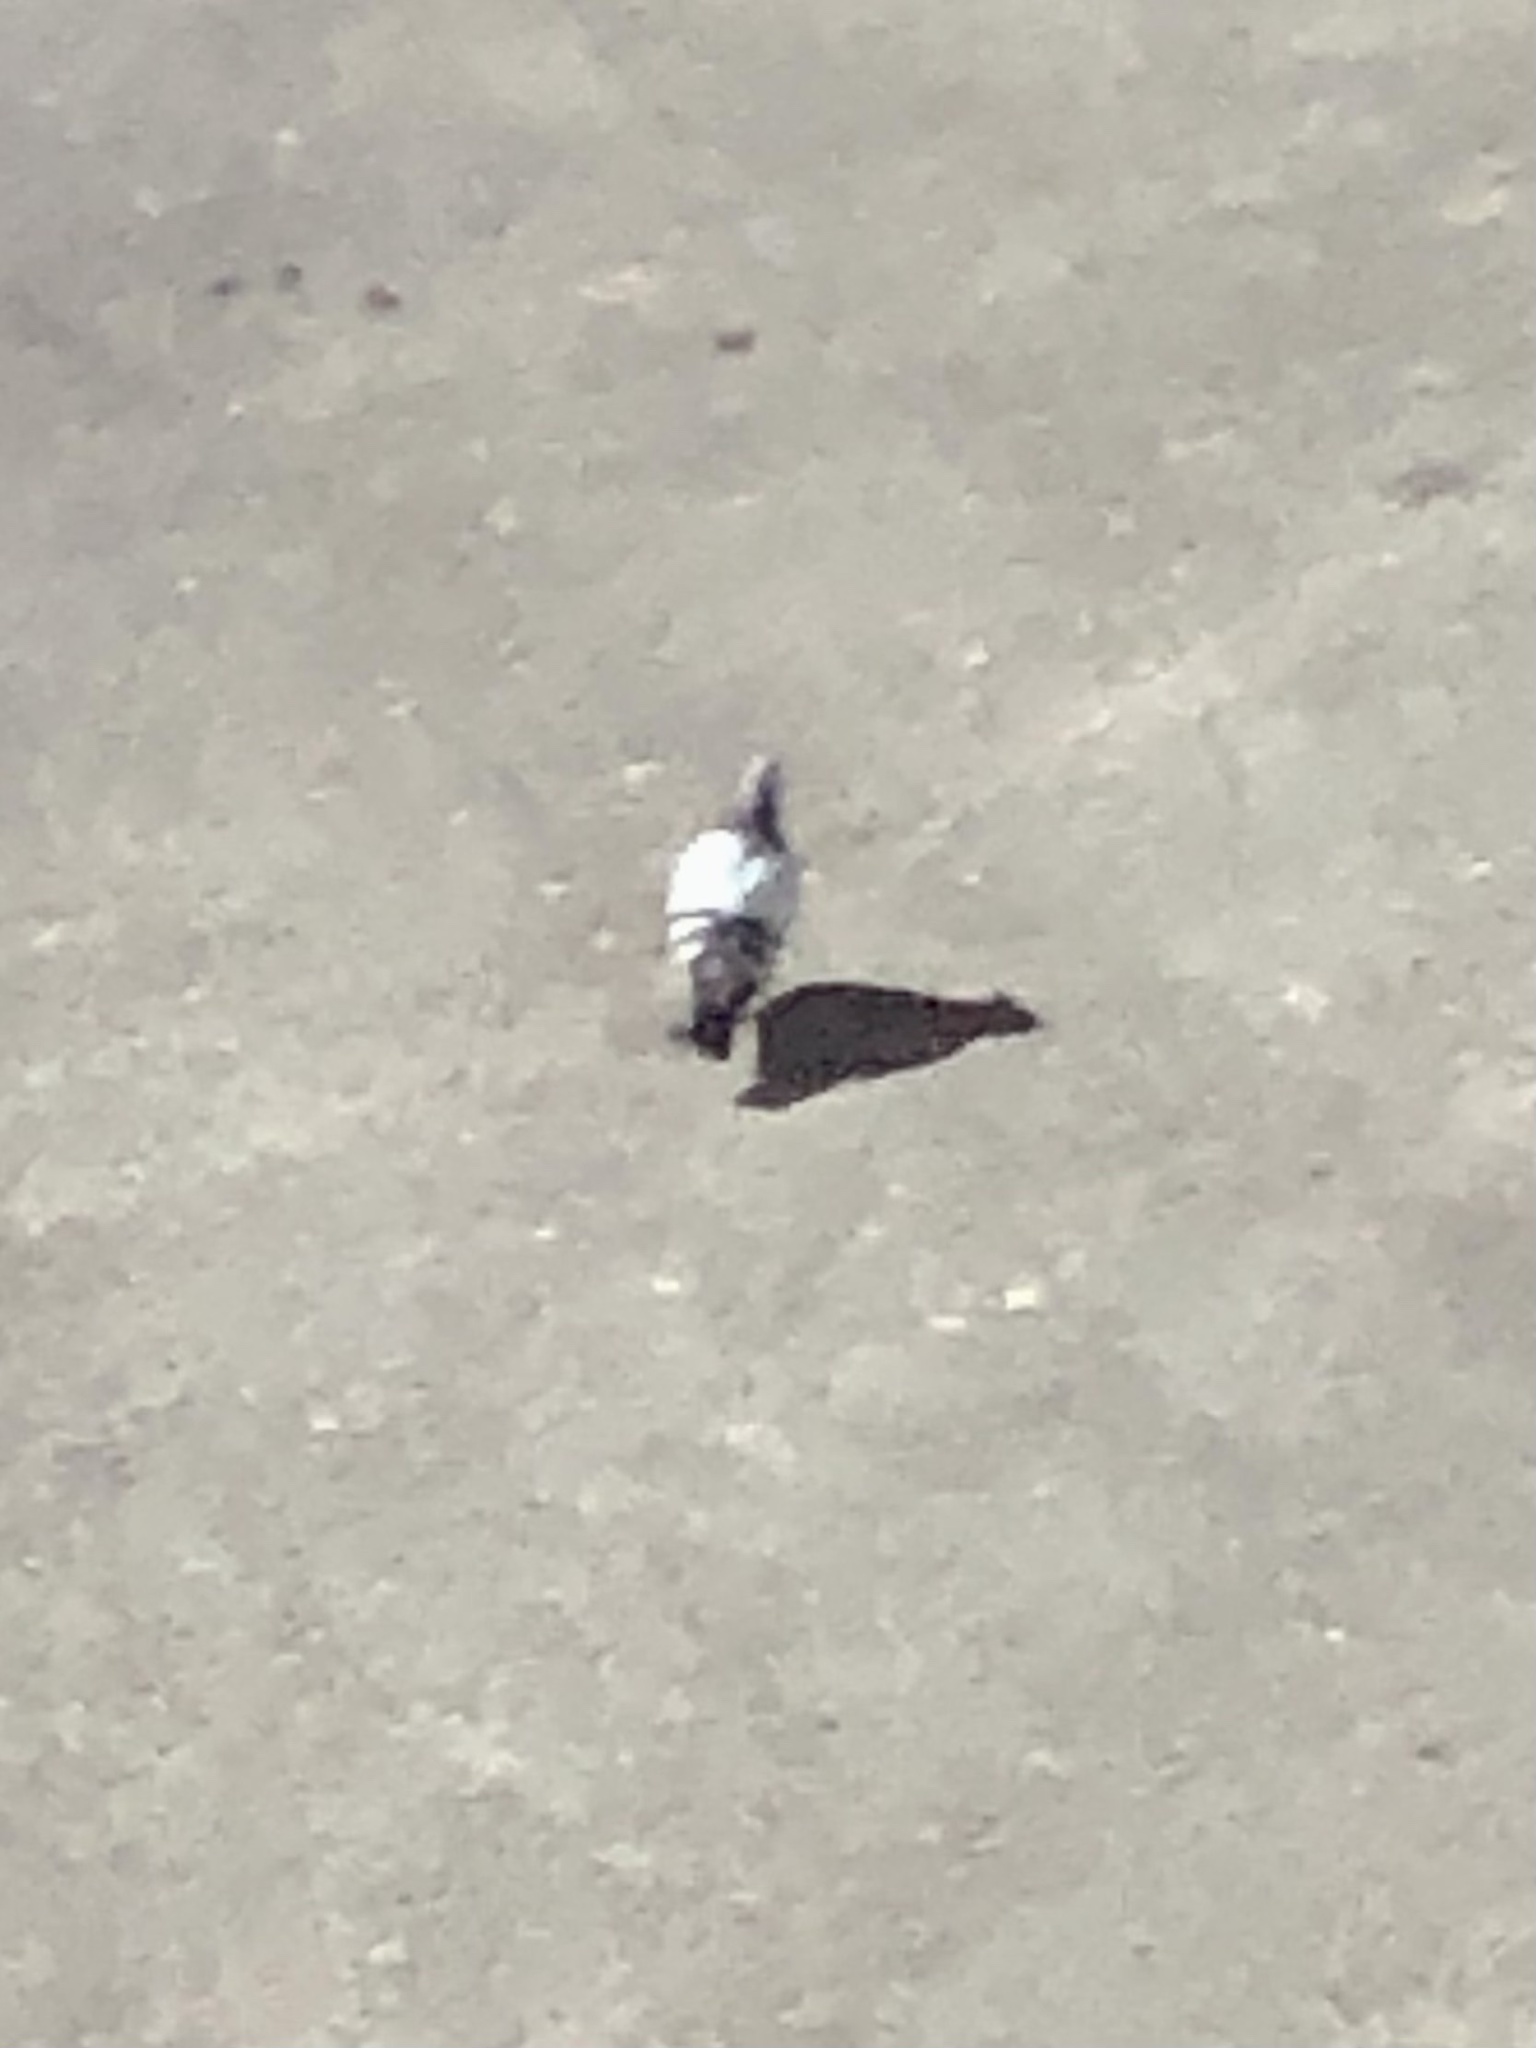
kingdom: Animalia
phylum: Chordata
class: Aves
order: Columbiformes
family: Columbidae
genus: Columba
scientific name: Columba livia
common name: Rock pigeon
